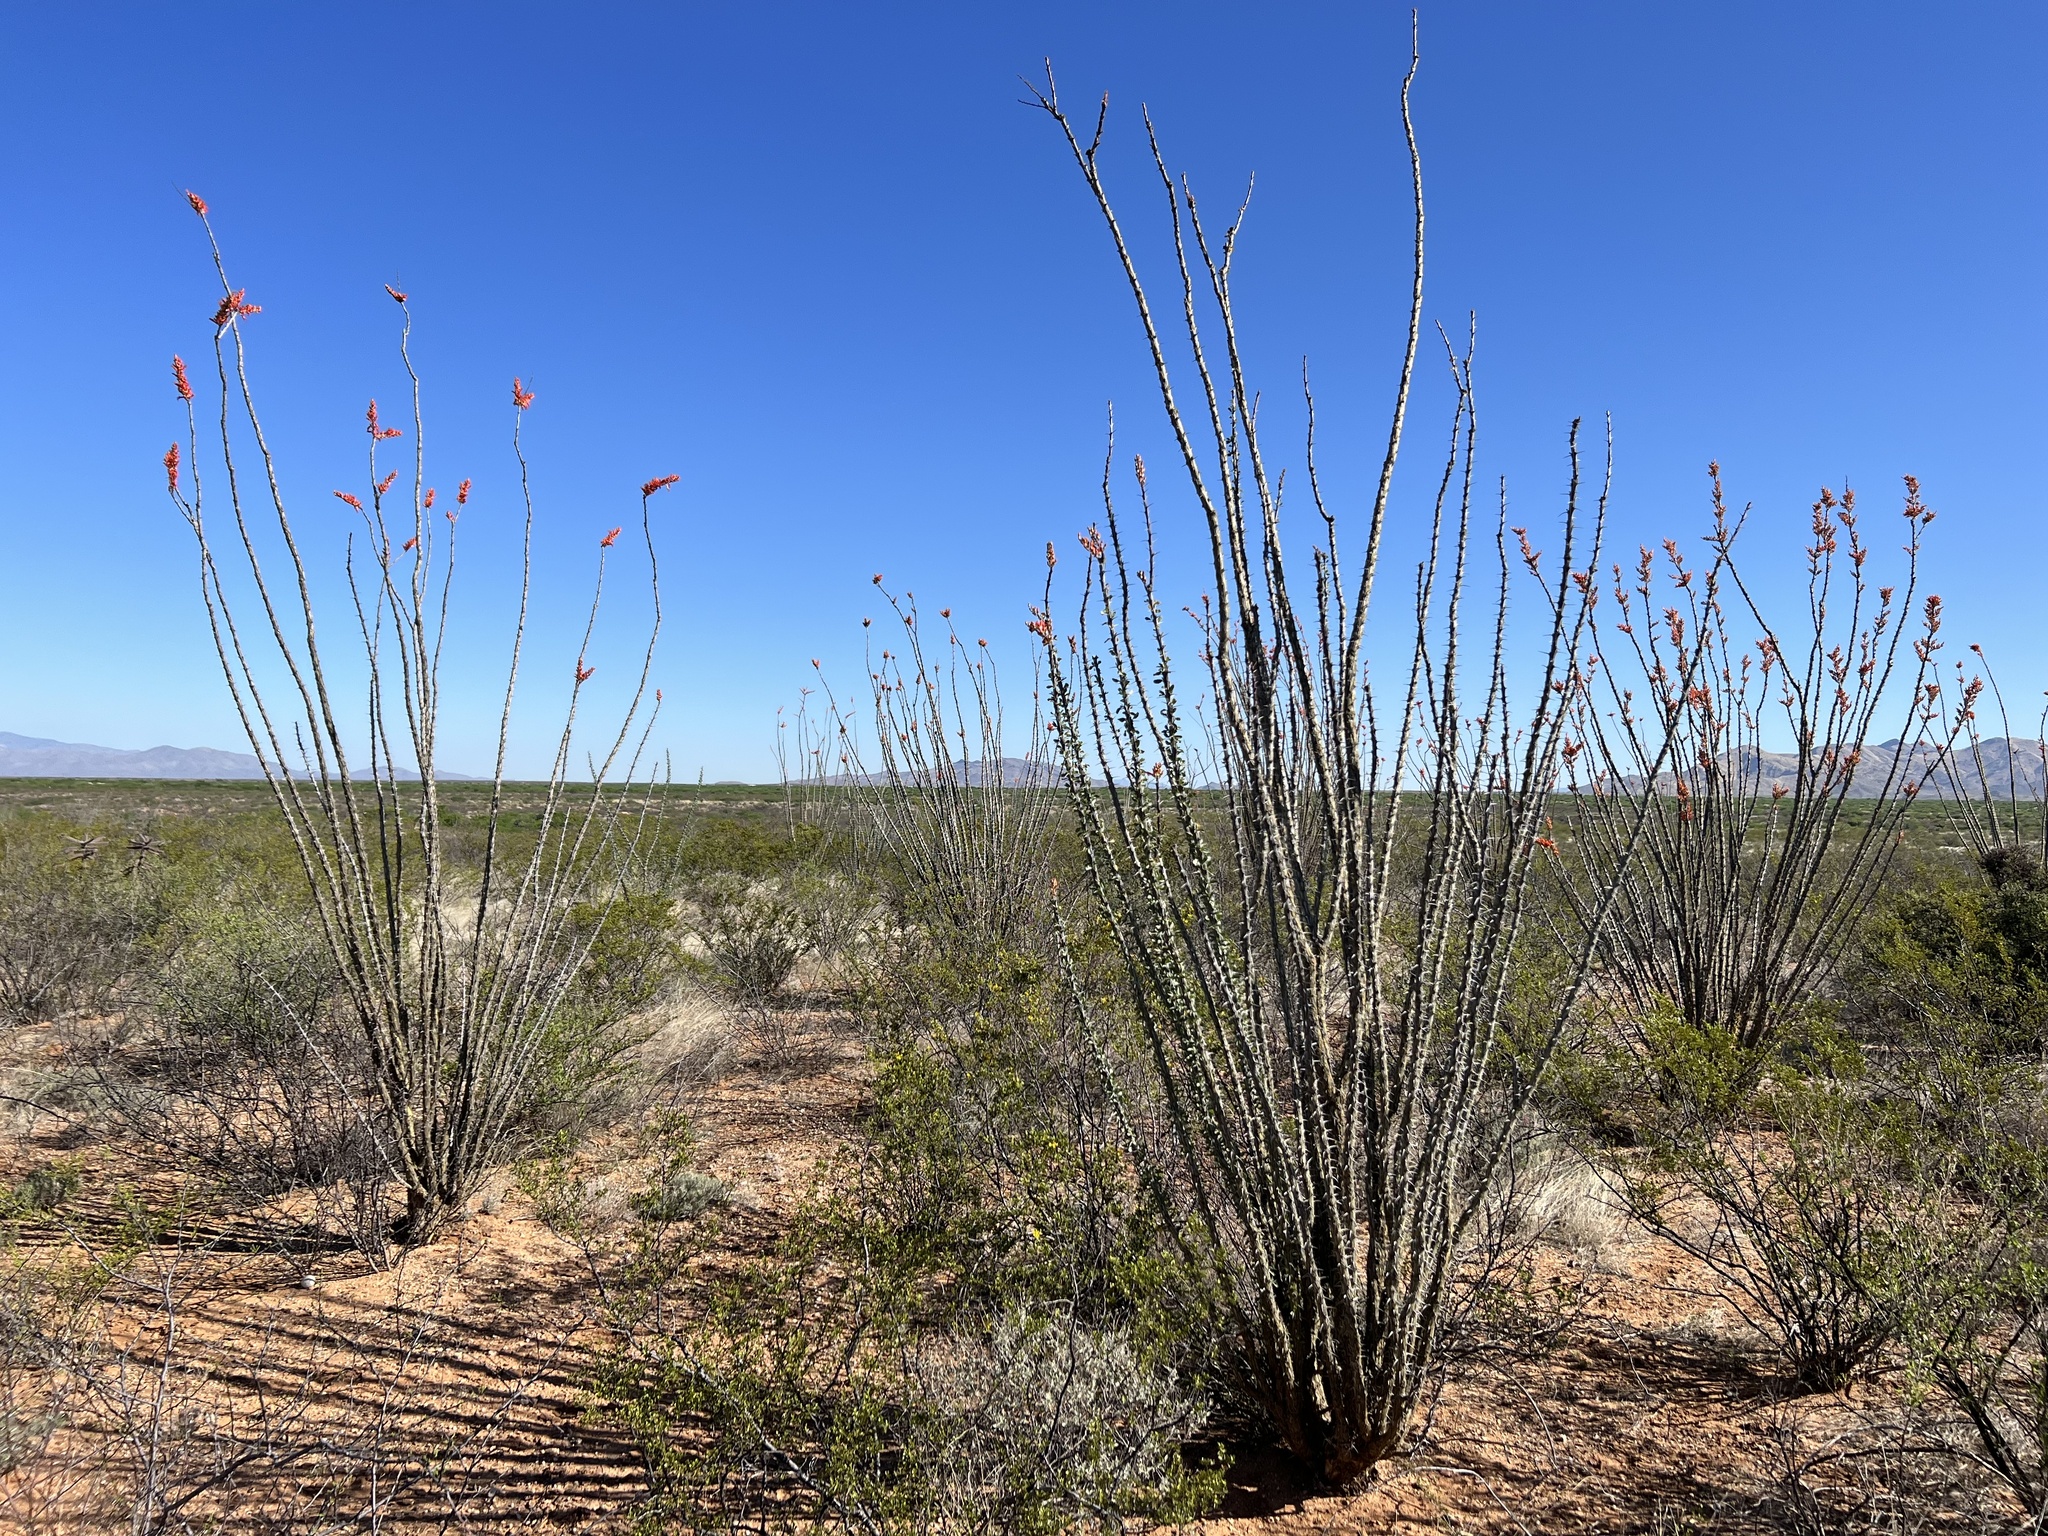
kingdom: Plantae
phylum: Tracheophyta
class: Magnoliopsida
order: Ericales
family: Fouquieriaceae
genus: Fouquieria
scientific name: Fouquieria splendens
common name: Vine-cactus
